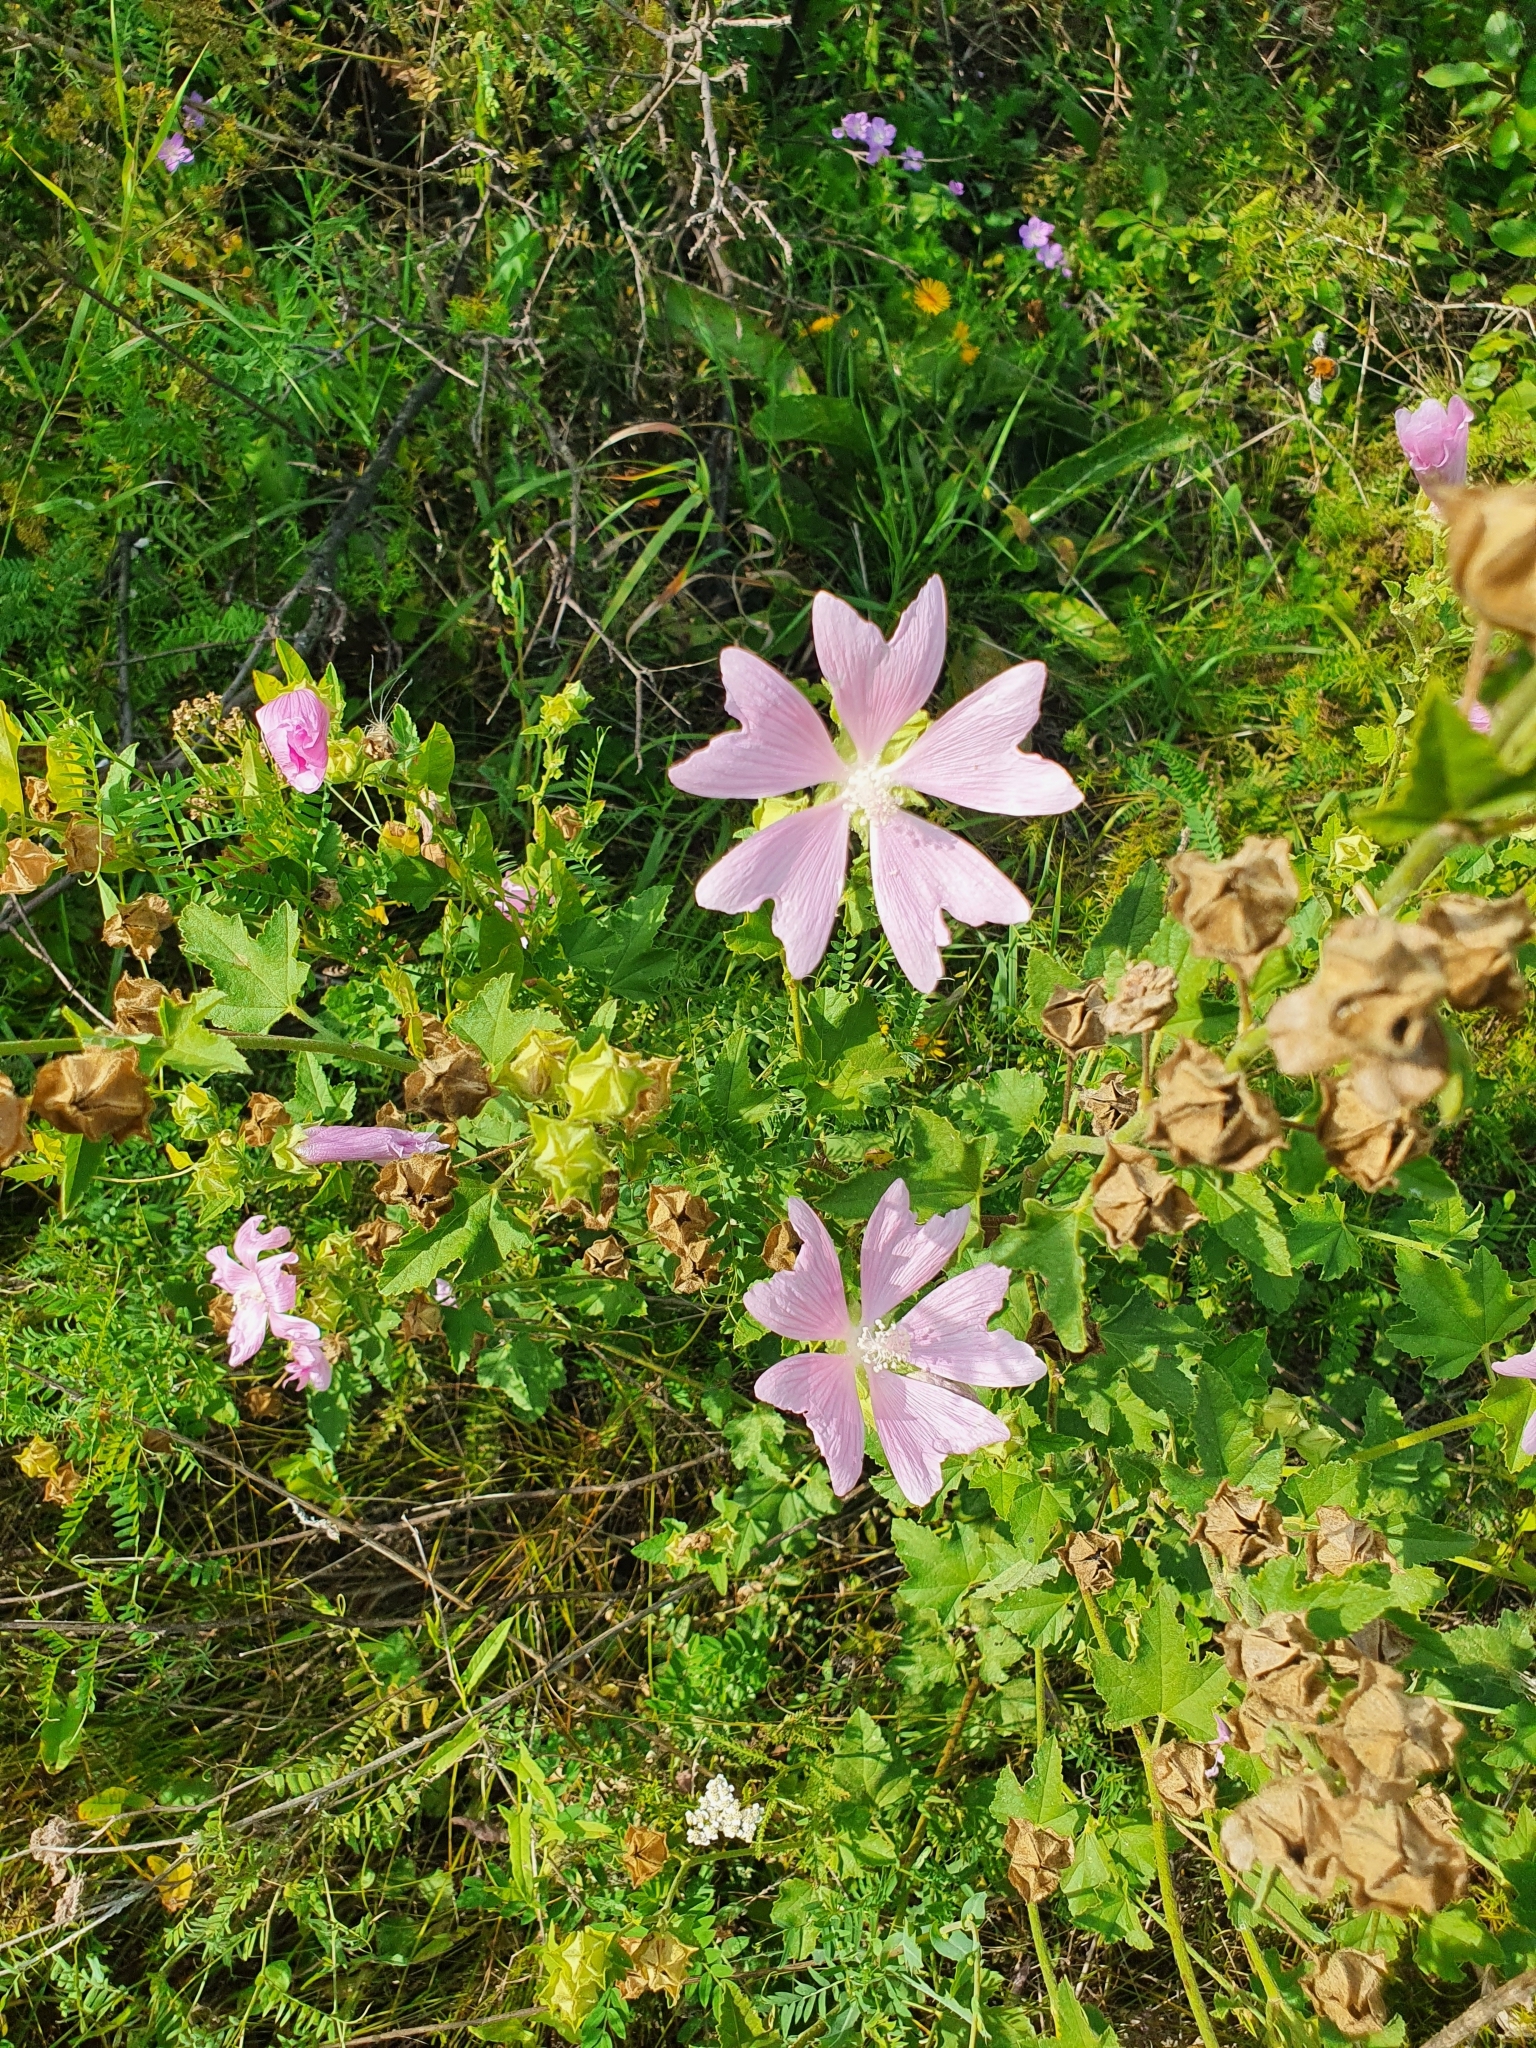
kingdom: Plantae
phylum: Tracheophyta
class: Magnoliopsida
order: Malvales
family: Malvaceae
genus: Malva
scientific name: Malva thuringiaca
